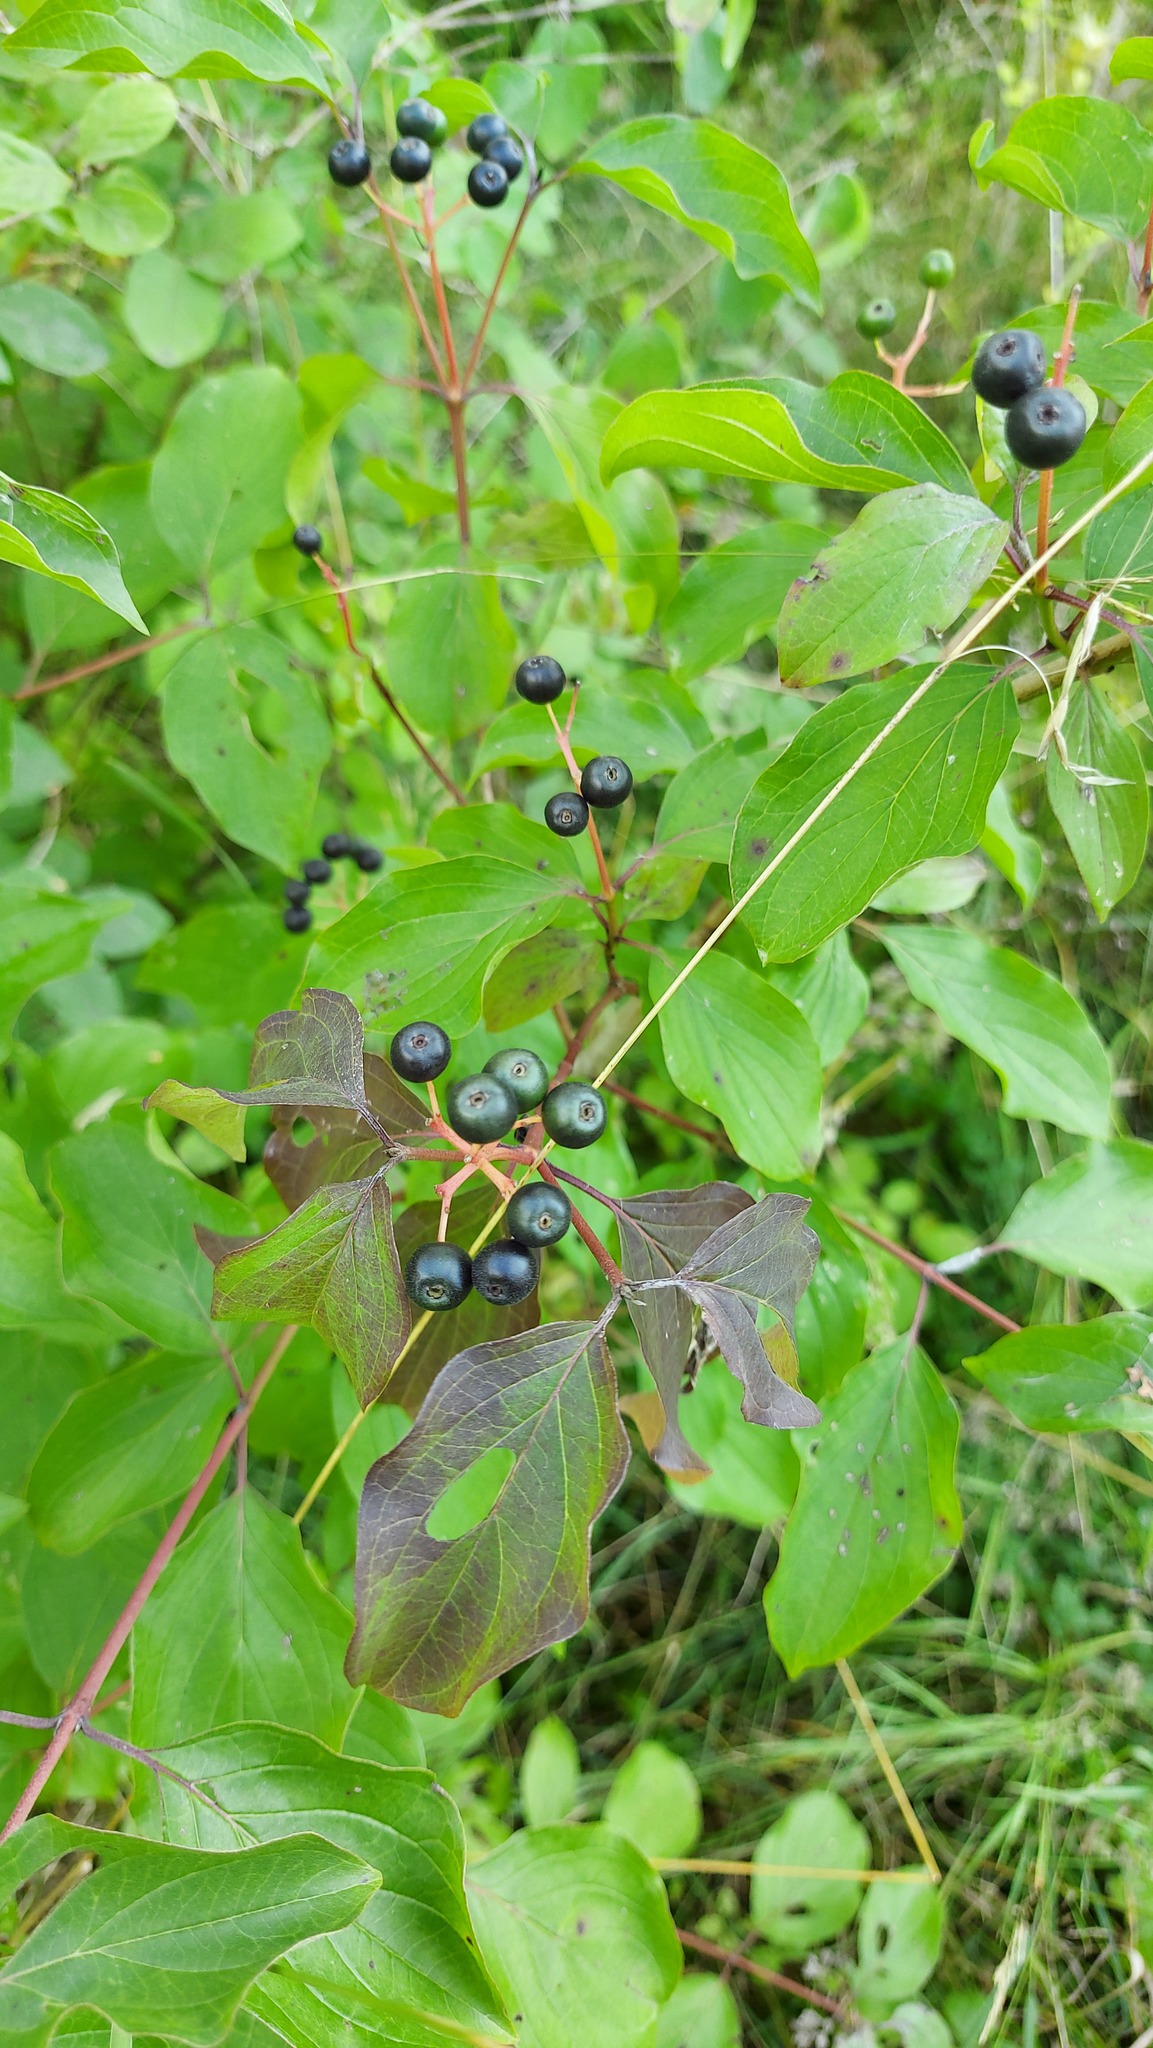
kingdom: Plantae
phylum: Tracheophyta
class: Magnoliopsida
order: Cornales
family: Cornaceae
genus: Cornus
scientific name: Cornus sanguinea
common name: Dogwood
